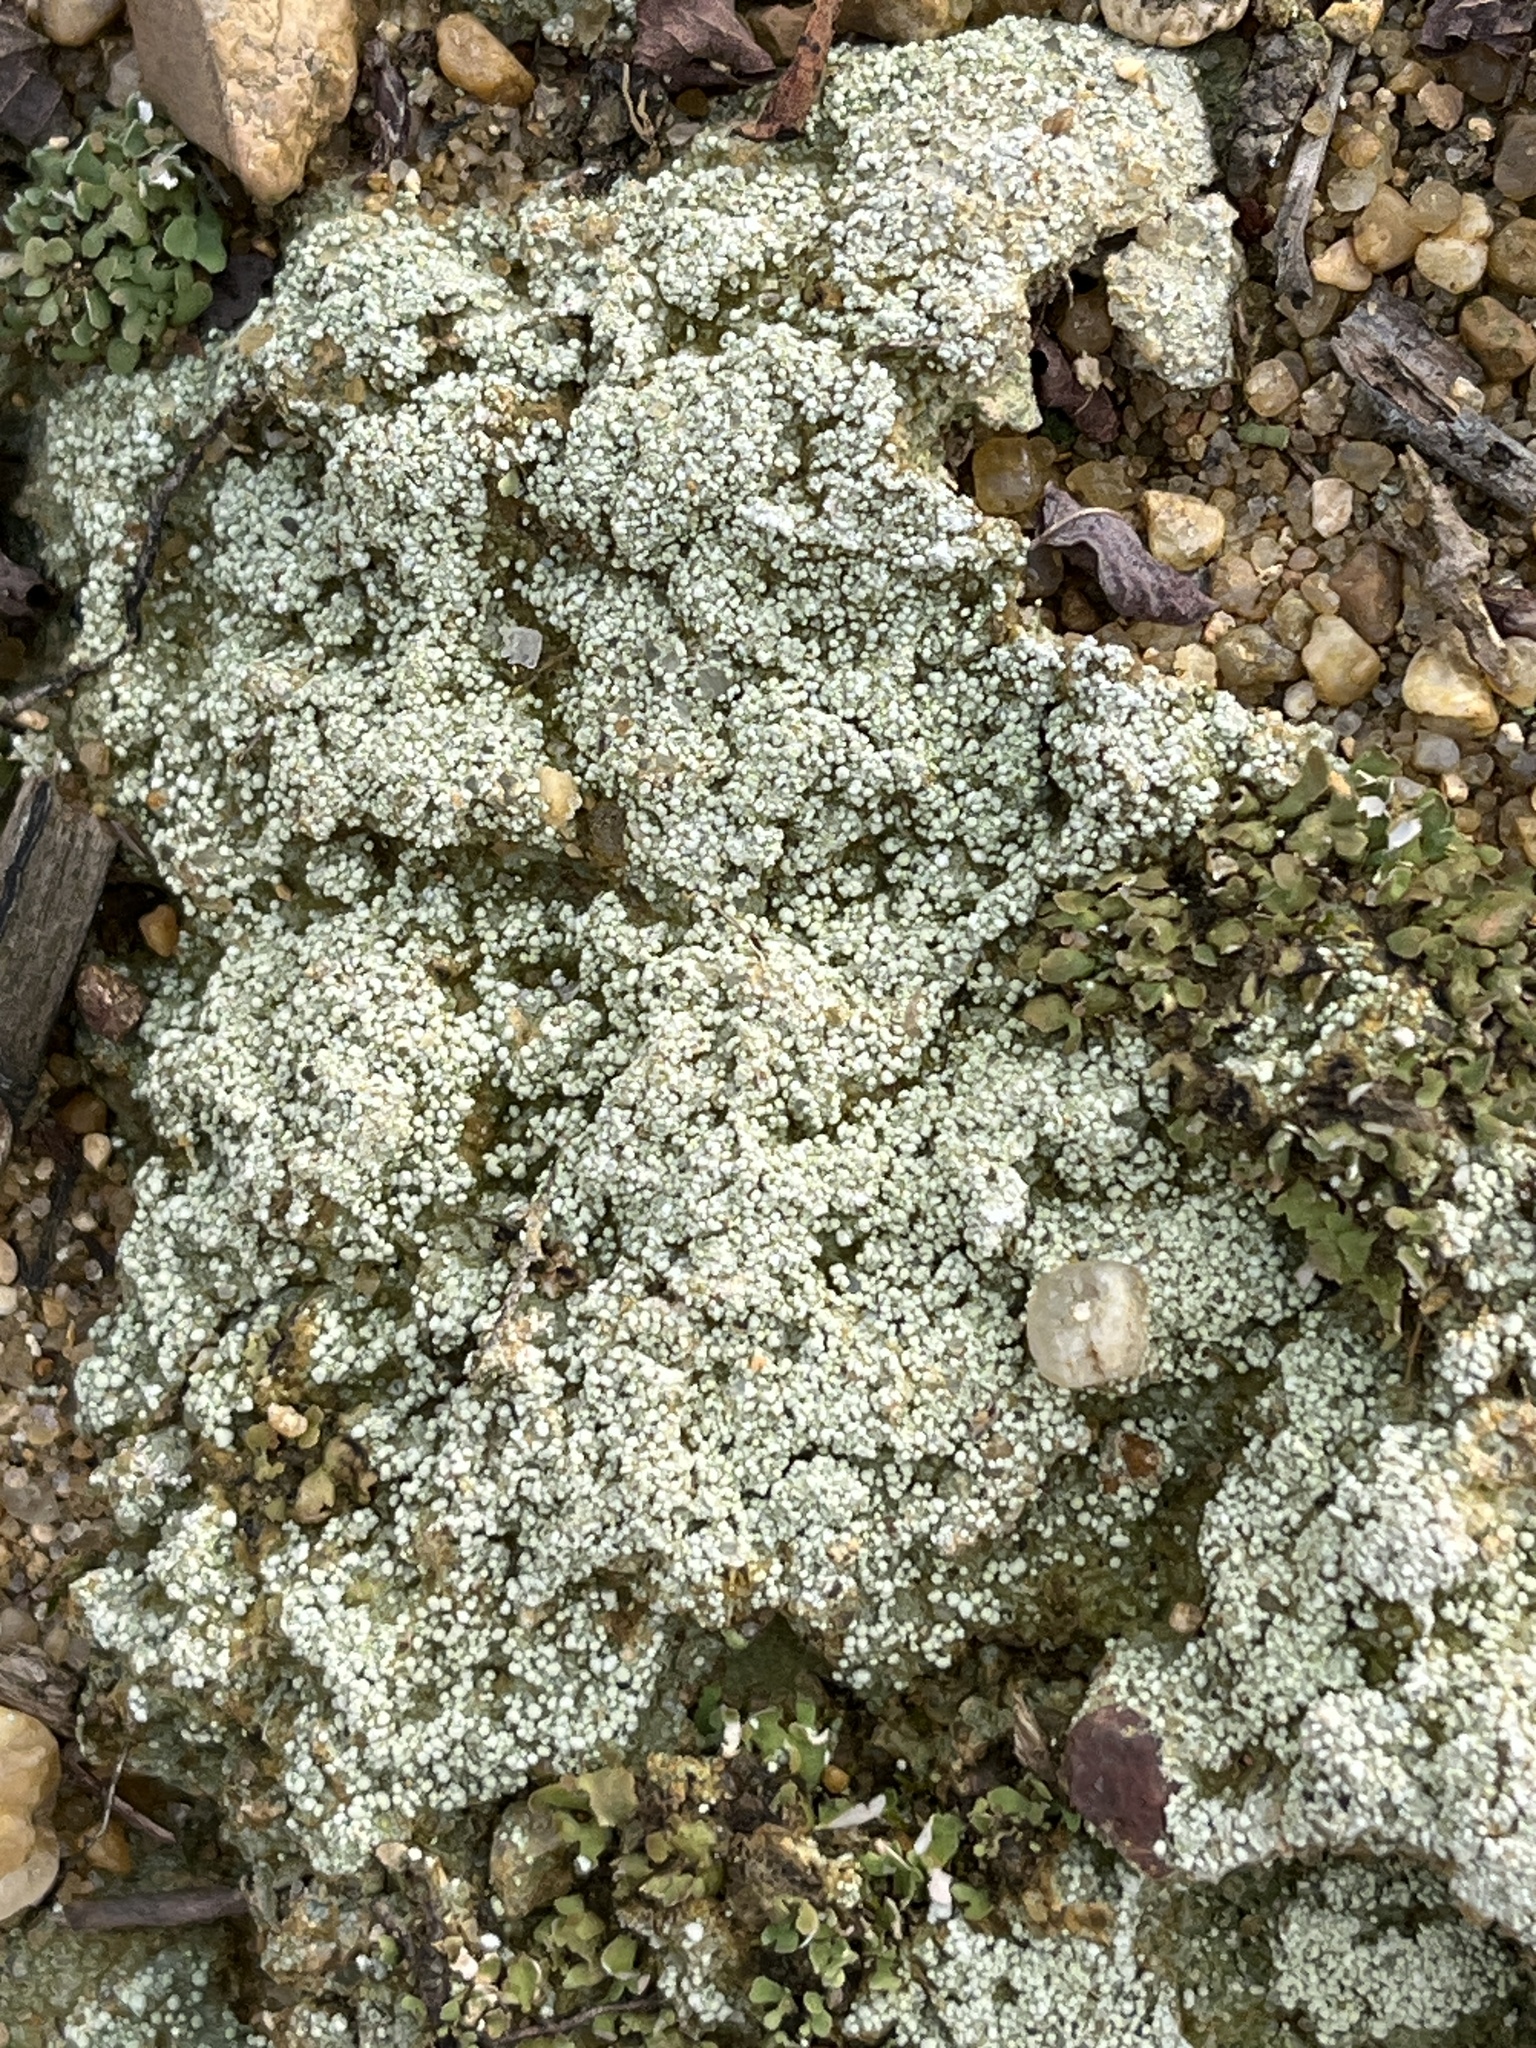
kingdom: Fungi
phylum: Ascomycota
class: Lecanoromycetes
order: Pertusariales
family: Icmadophilaceae
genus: Dibaeis
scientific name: Dibaeis baeomyces
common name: Pink earth lichen
